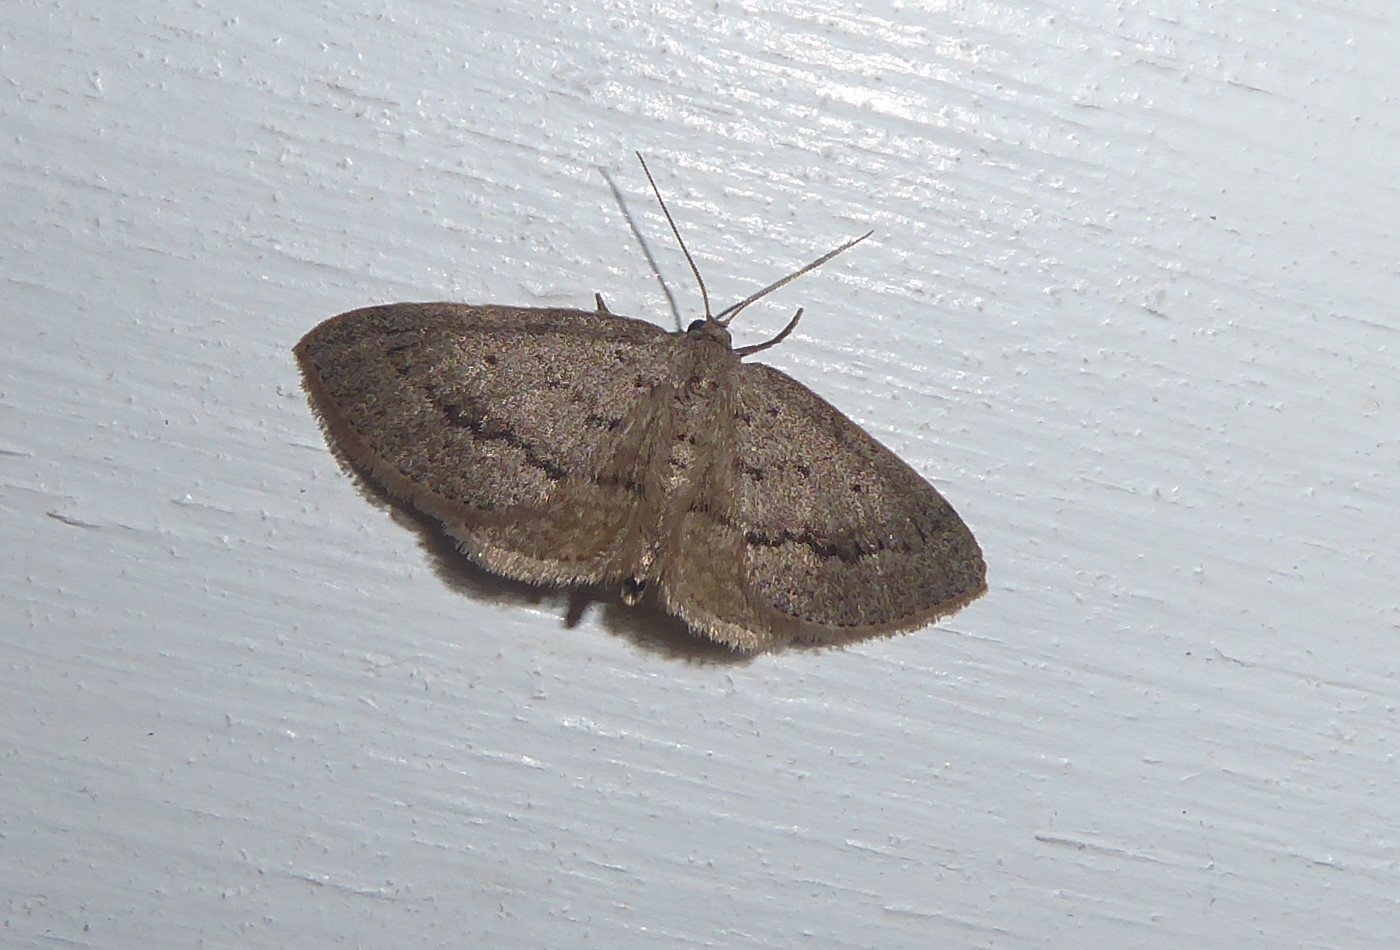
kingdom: Animalia
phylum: Arthropoda
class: Insecta
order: Lepidoptera
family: Geometridae
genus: Poecilasthena
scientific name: Poecilasthena schistaria
